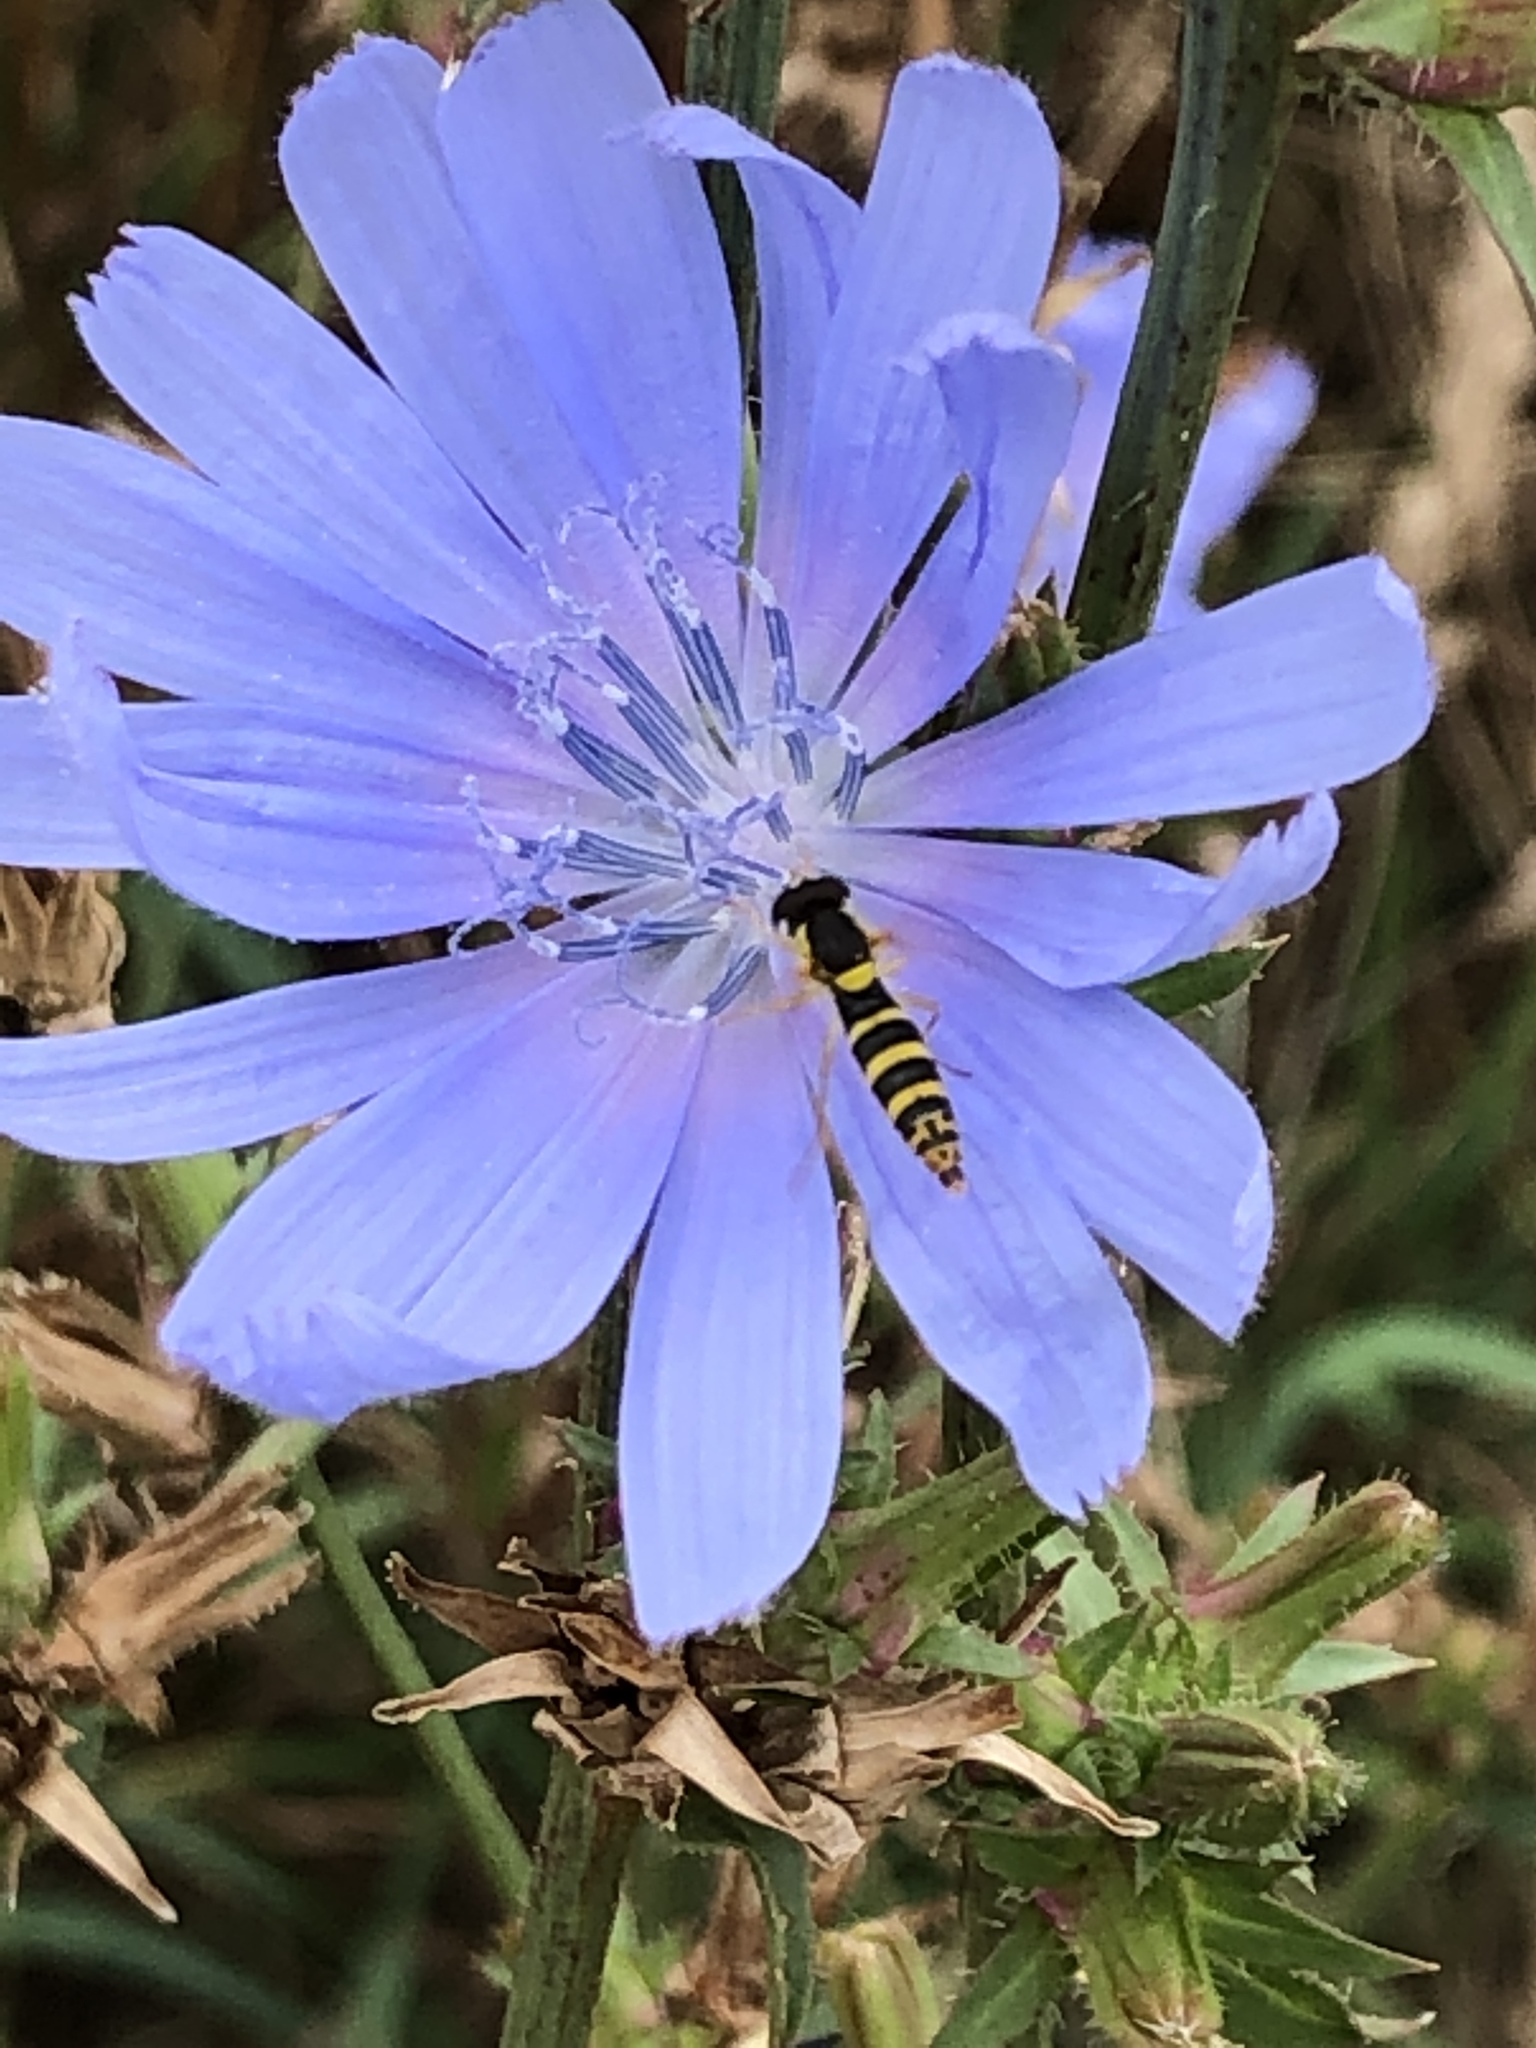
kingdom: Animalia
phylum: Arthropoda
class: Insecta
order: Diptera
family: Syrphidae
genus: Sphaerophoria
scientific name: Sphaerophoria
